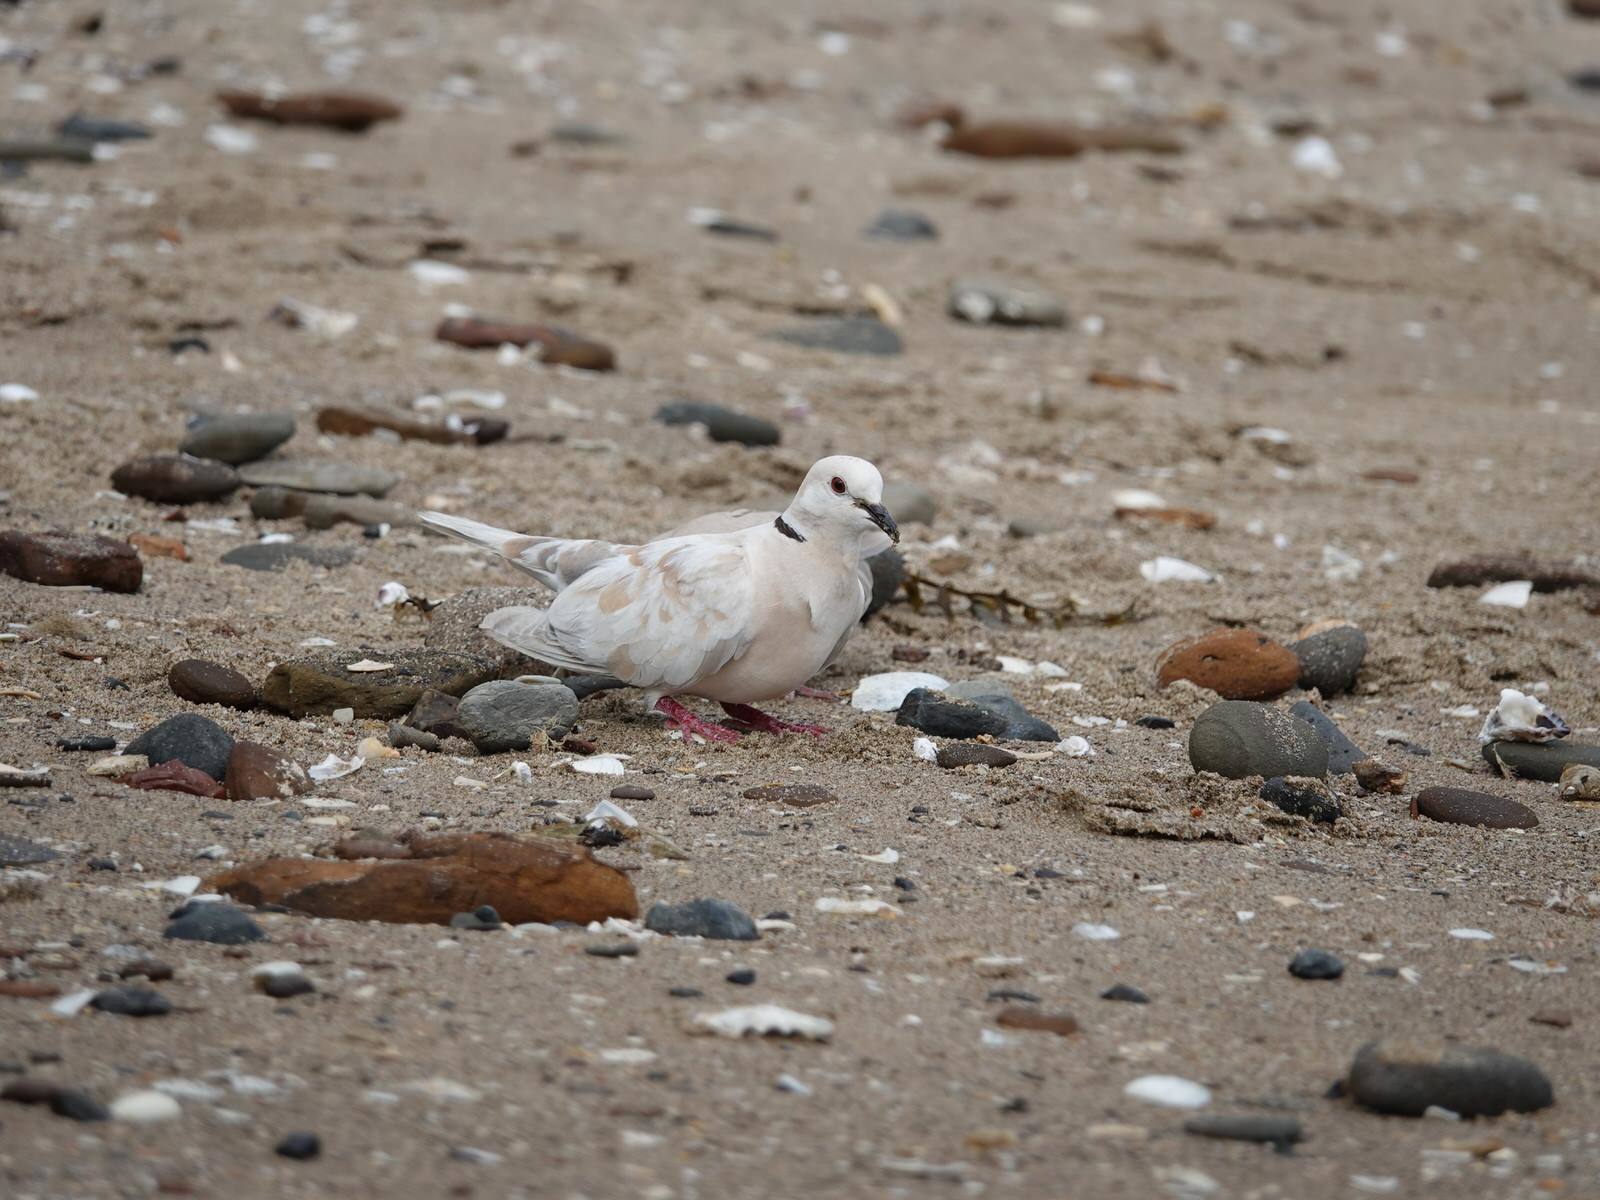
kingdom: Animalia
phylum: Chordata
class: Aves
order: Columbiformes
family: Columbidae
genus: Streptopelia
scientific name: Streptopelia roseogrisea
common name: African collared dove
